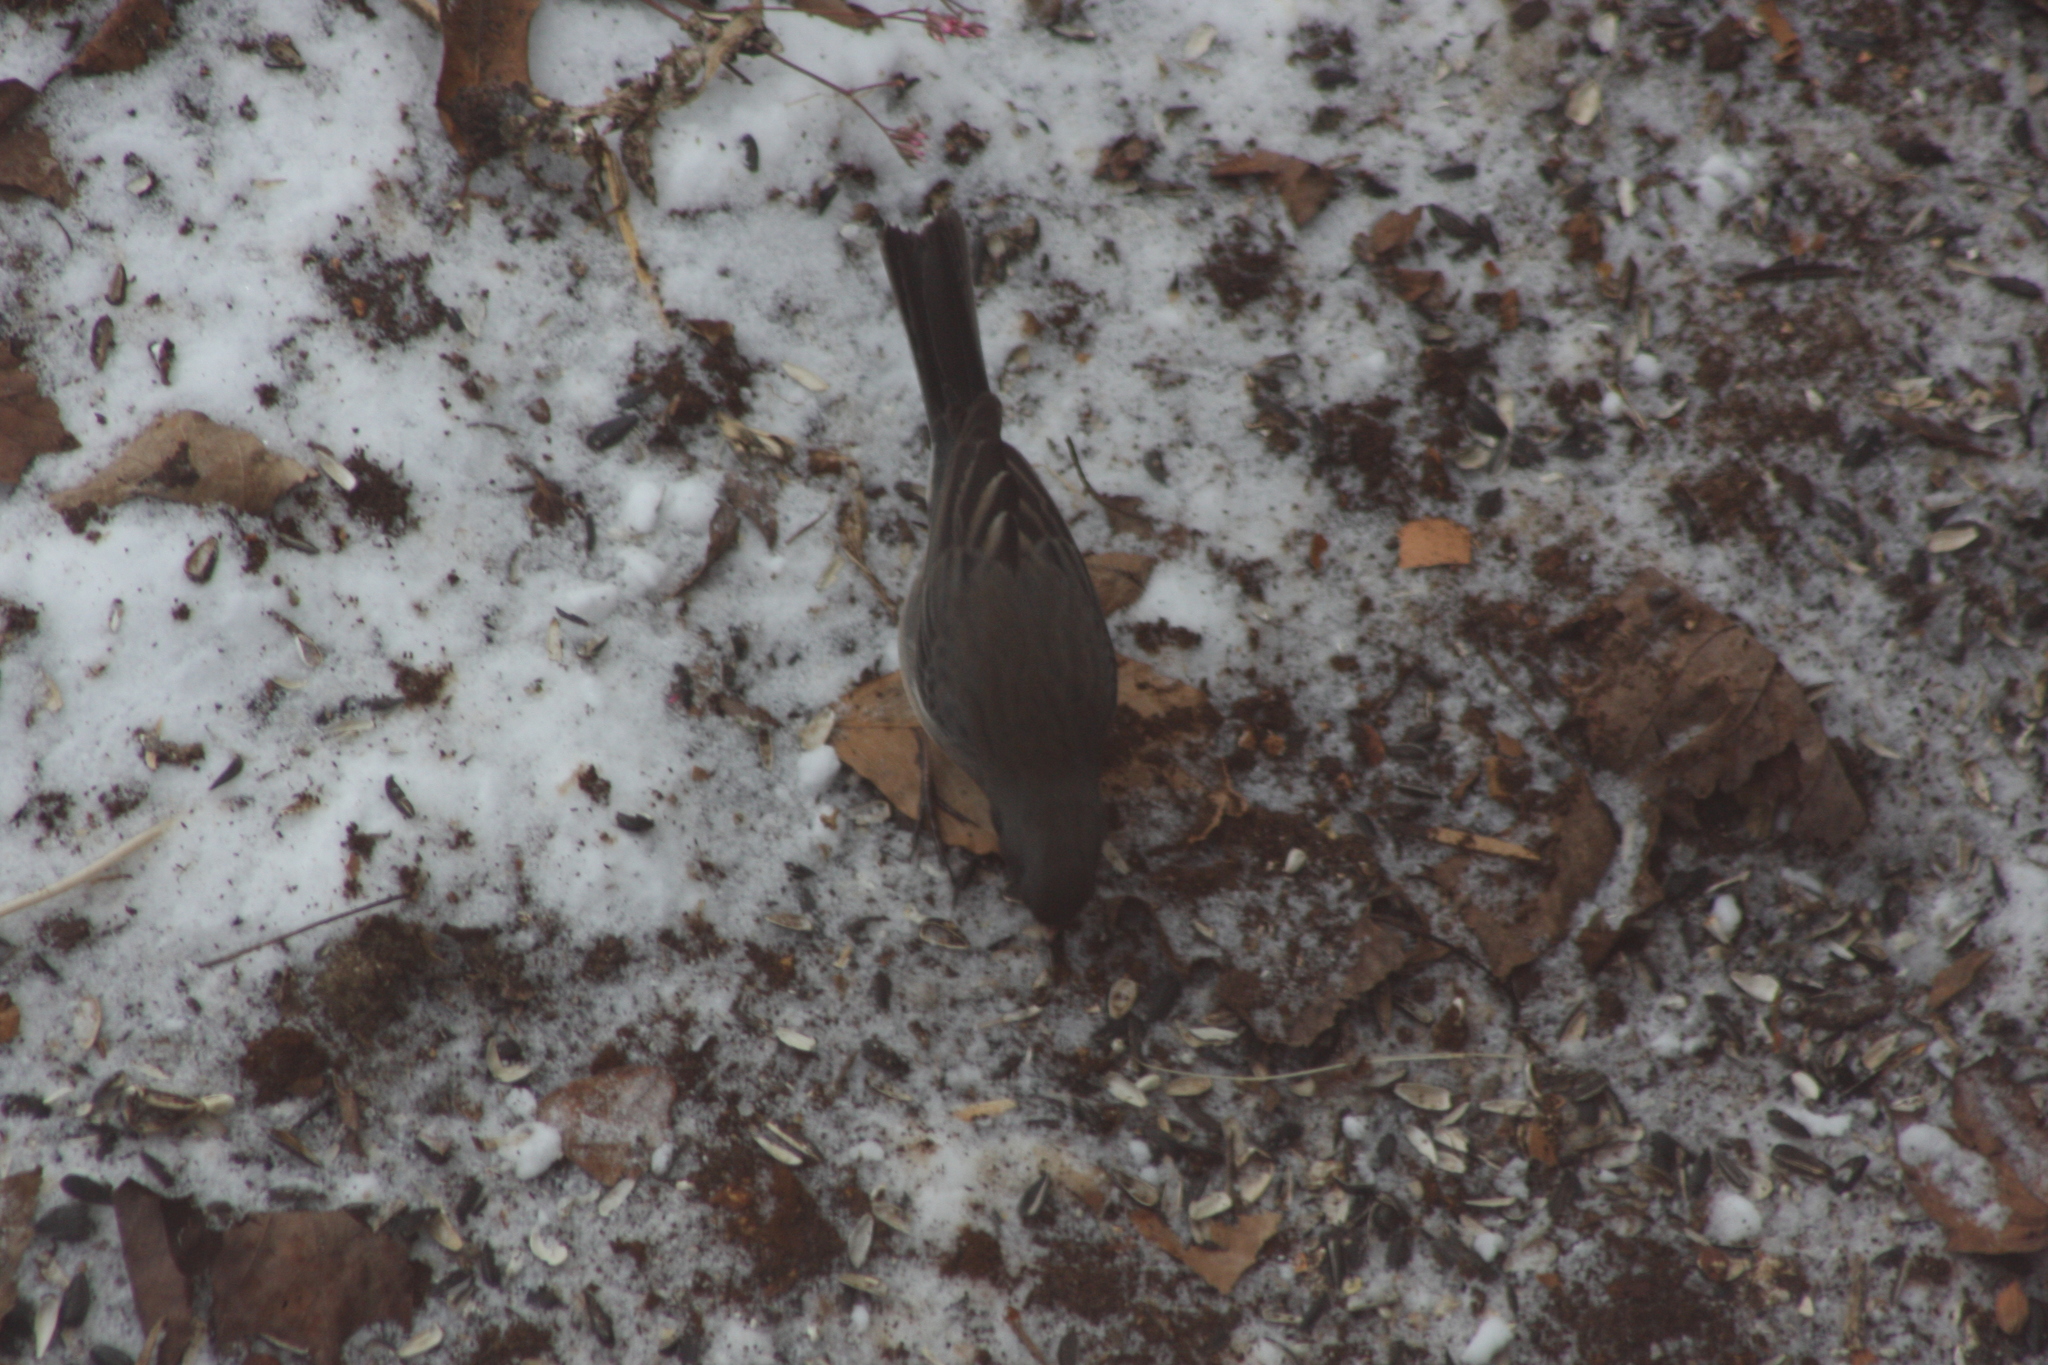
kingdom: Animalia
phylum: Chordata
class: Aves
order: Passeriformes
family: Passerellidae
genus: Junco
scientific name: Junco hyemalis
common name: Dark-eyed junco
